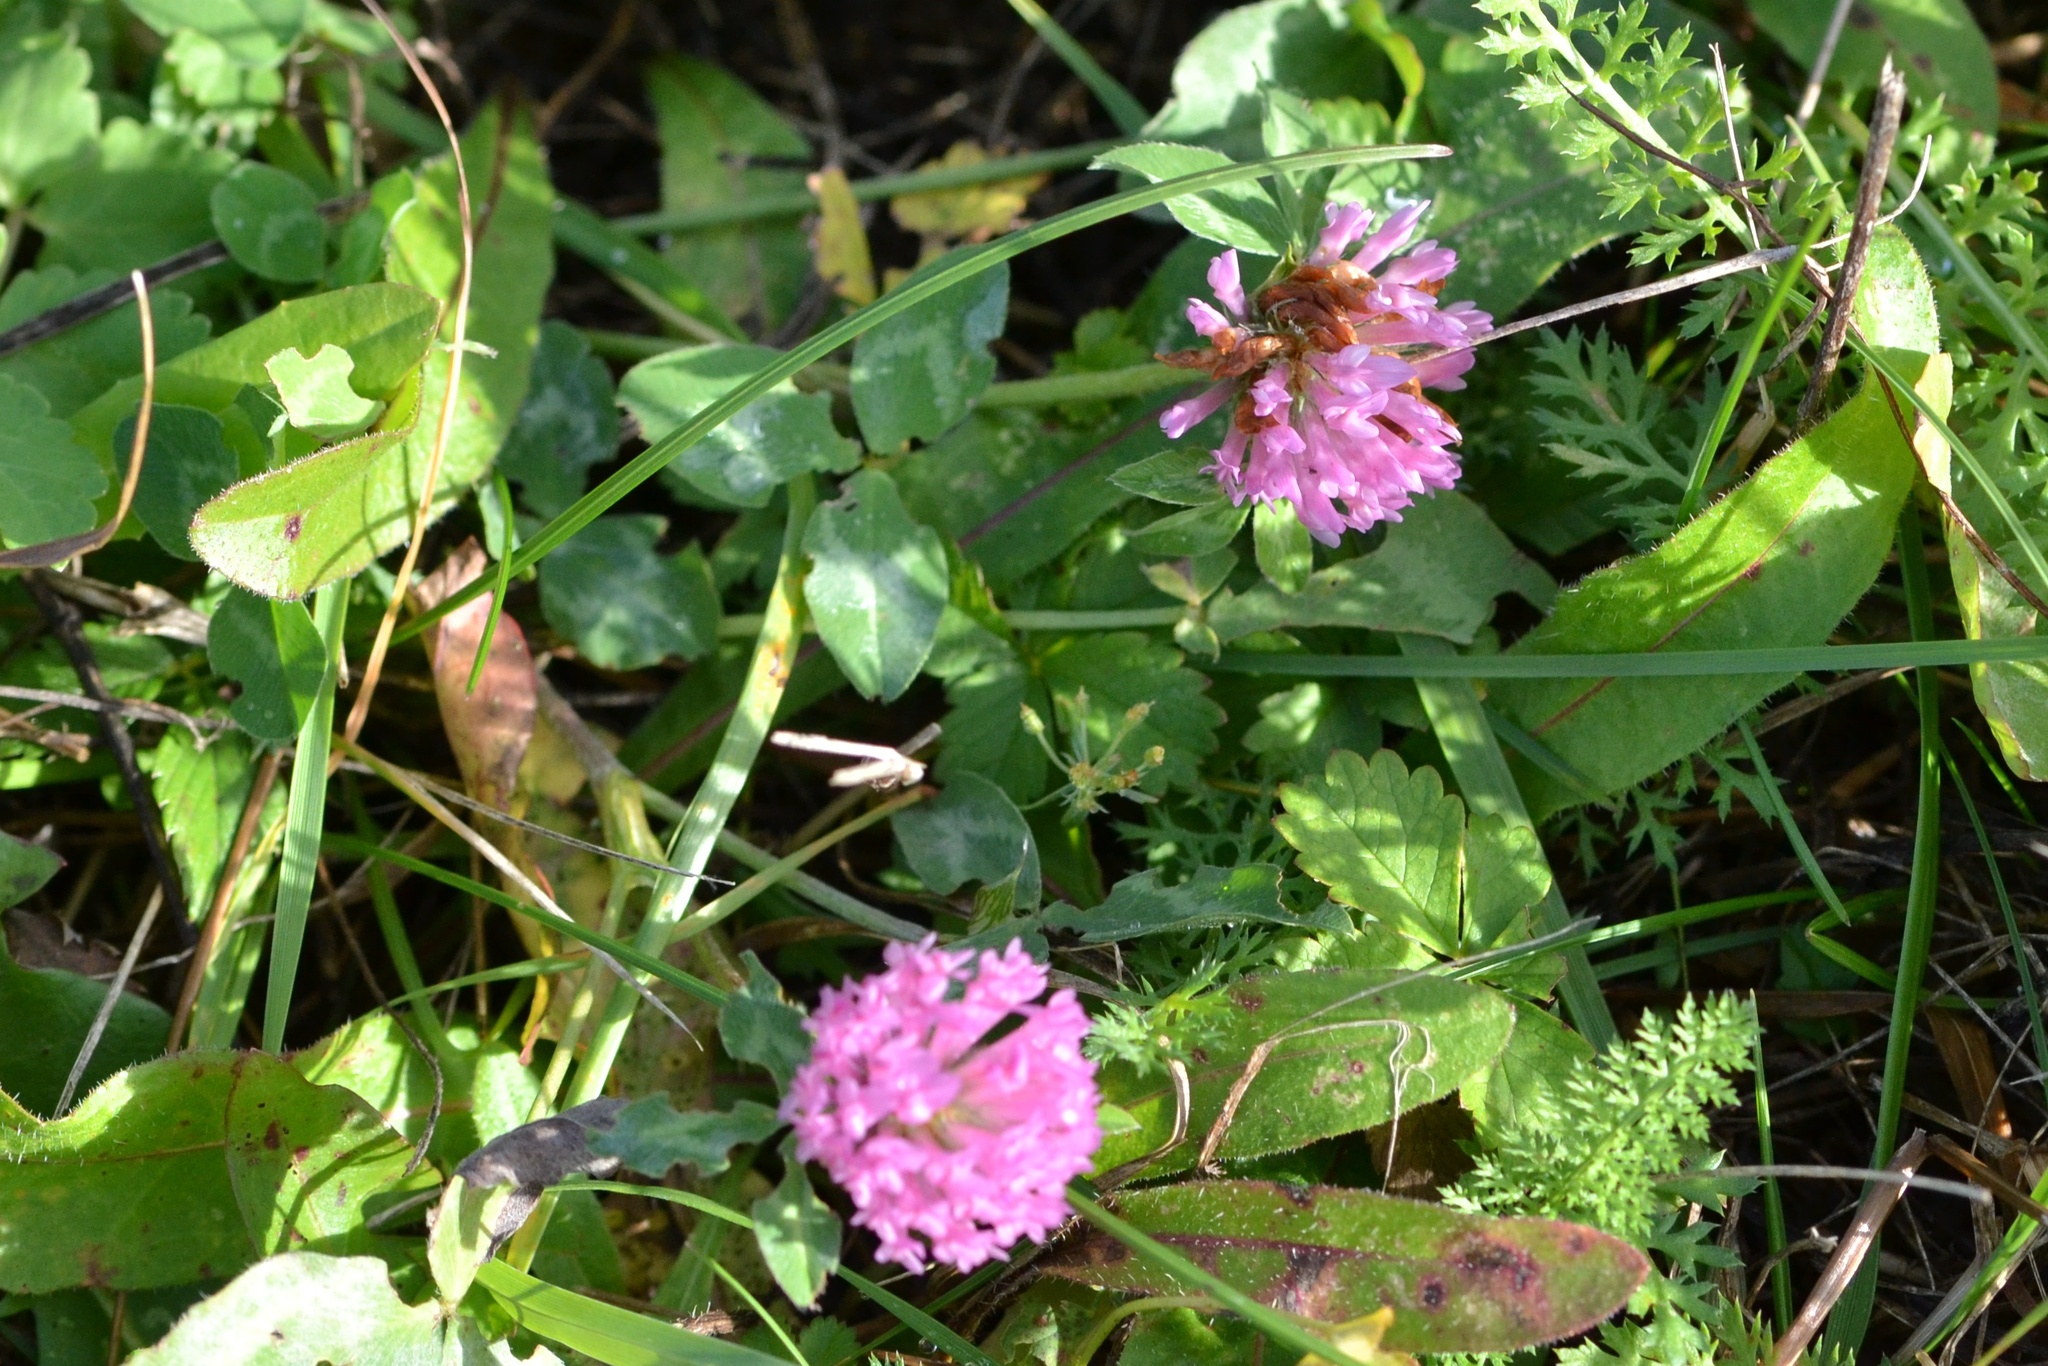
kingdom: Plantae
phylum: Tracheophyta
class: Magnoliopsida
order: Fabales
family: Fabaceae
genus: Trifolium
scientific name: Trifolium pratense
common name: Red clover
